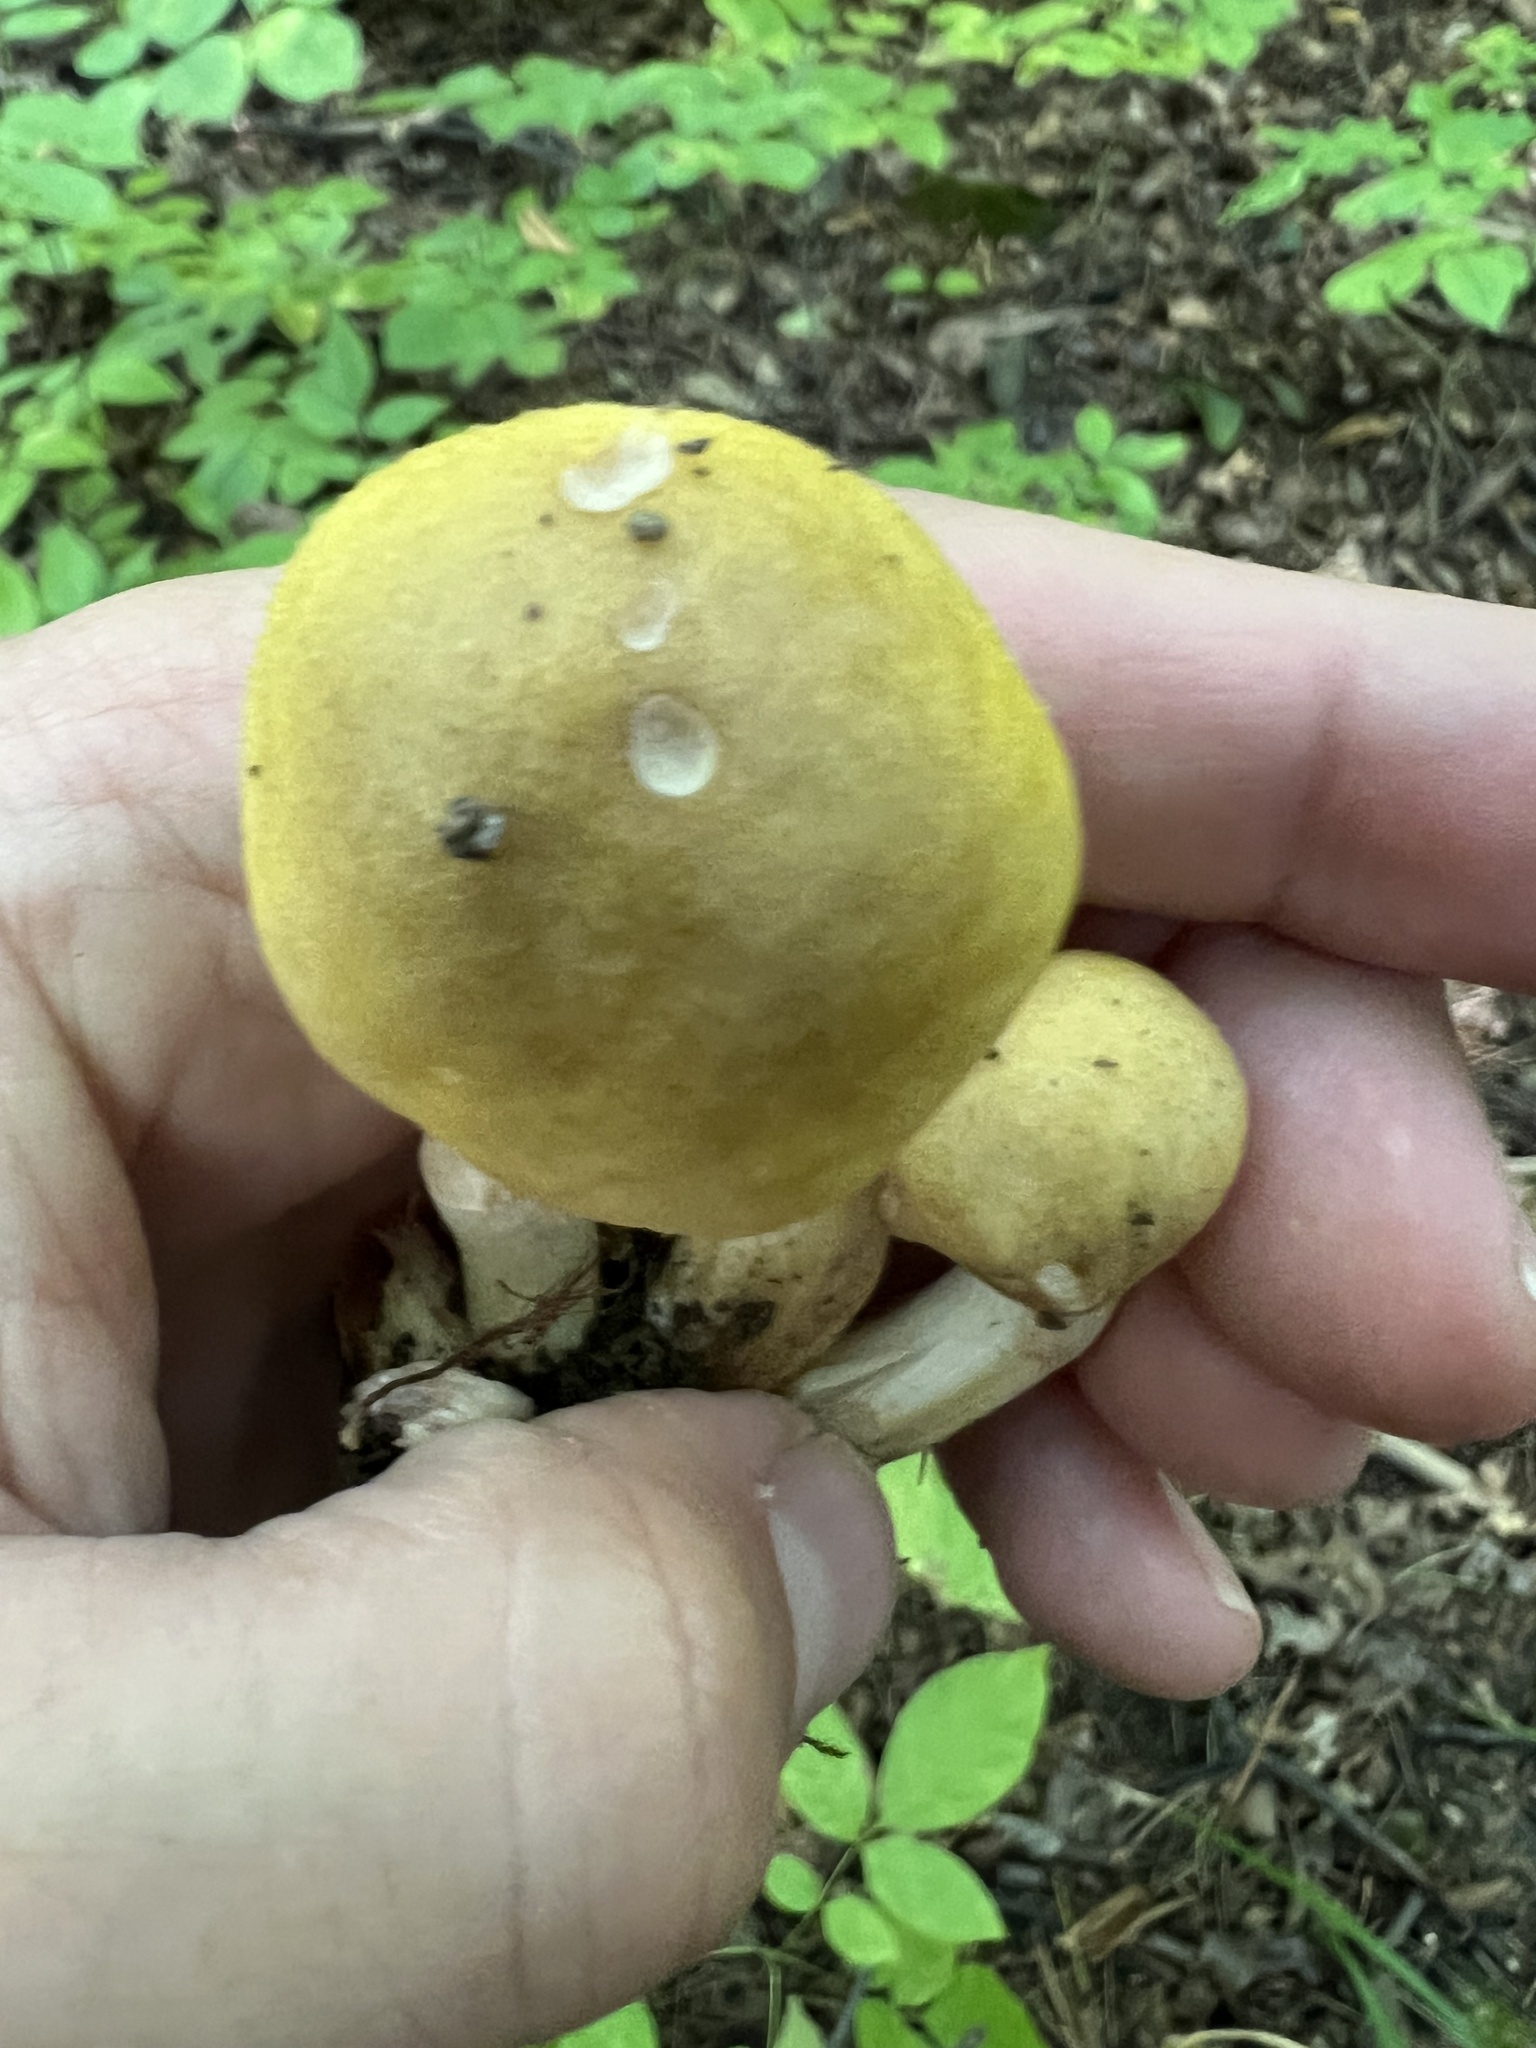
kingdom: Fungi
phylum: Basidiomycota
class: Agaricomycetes
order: Agaricales
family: Physalacriaceae
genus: Armillaria
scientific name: Armillaria mellea
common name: Honey fungus
